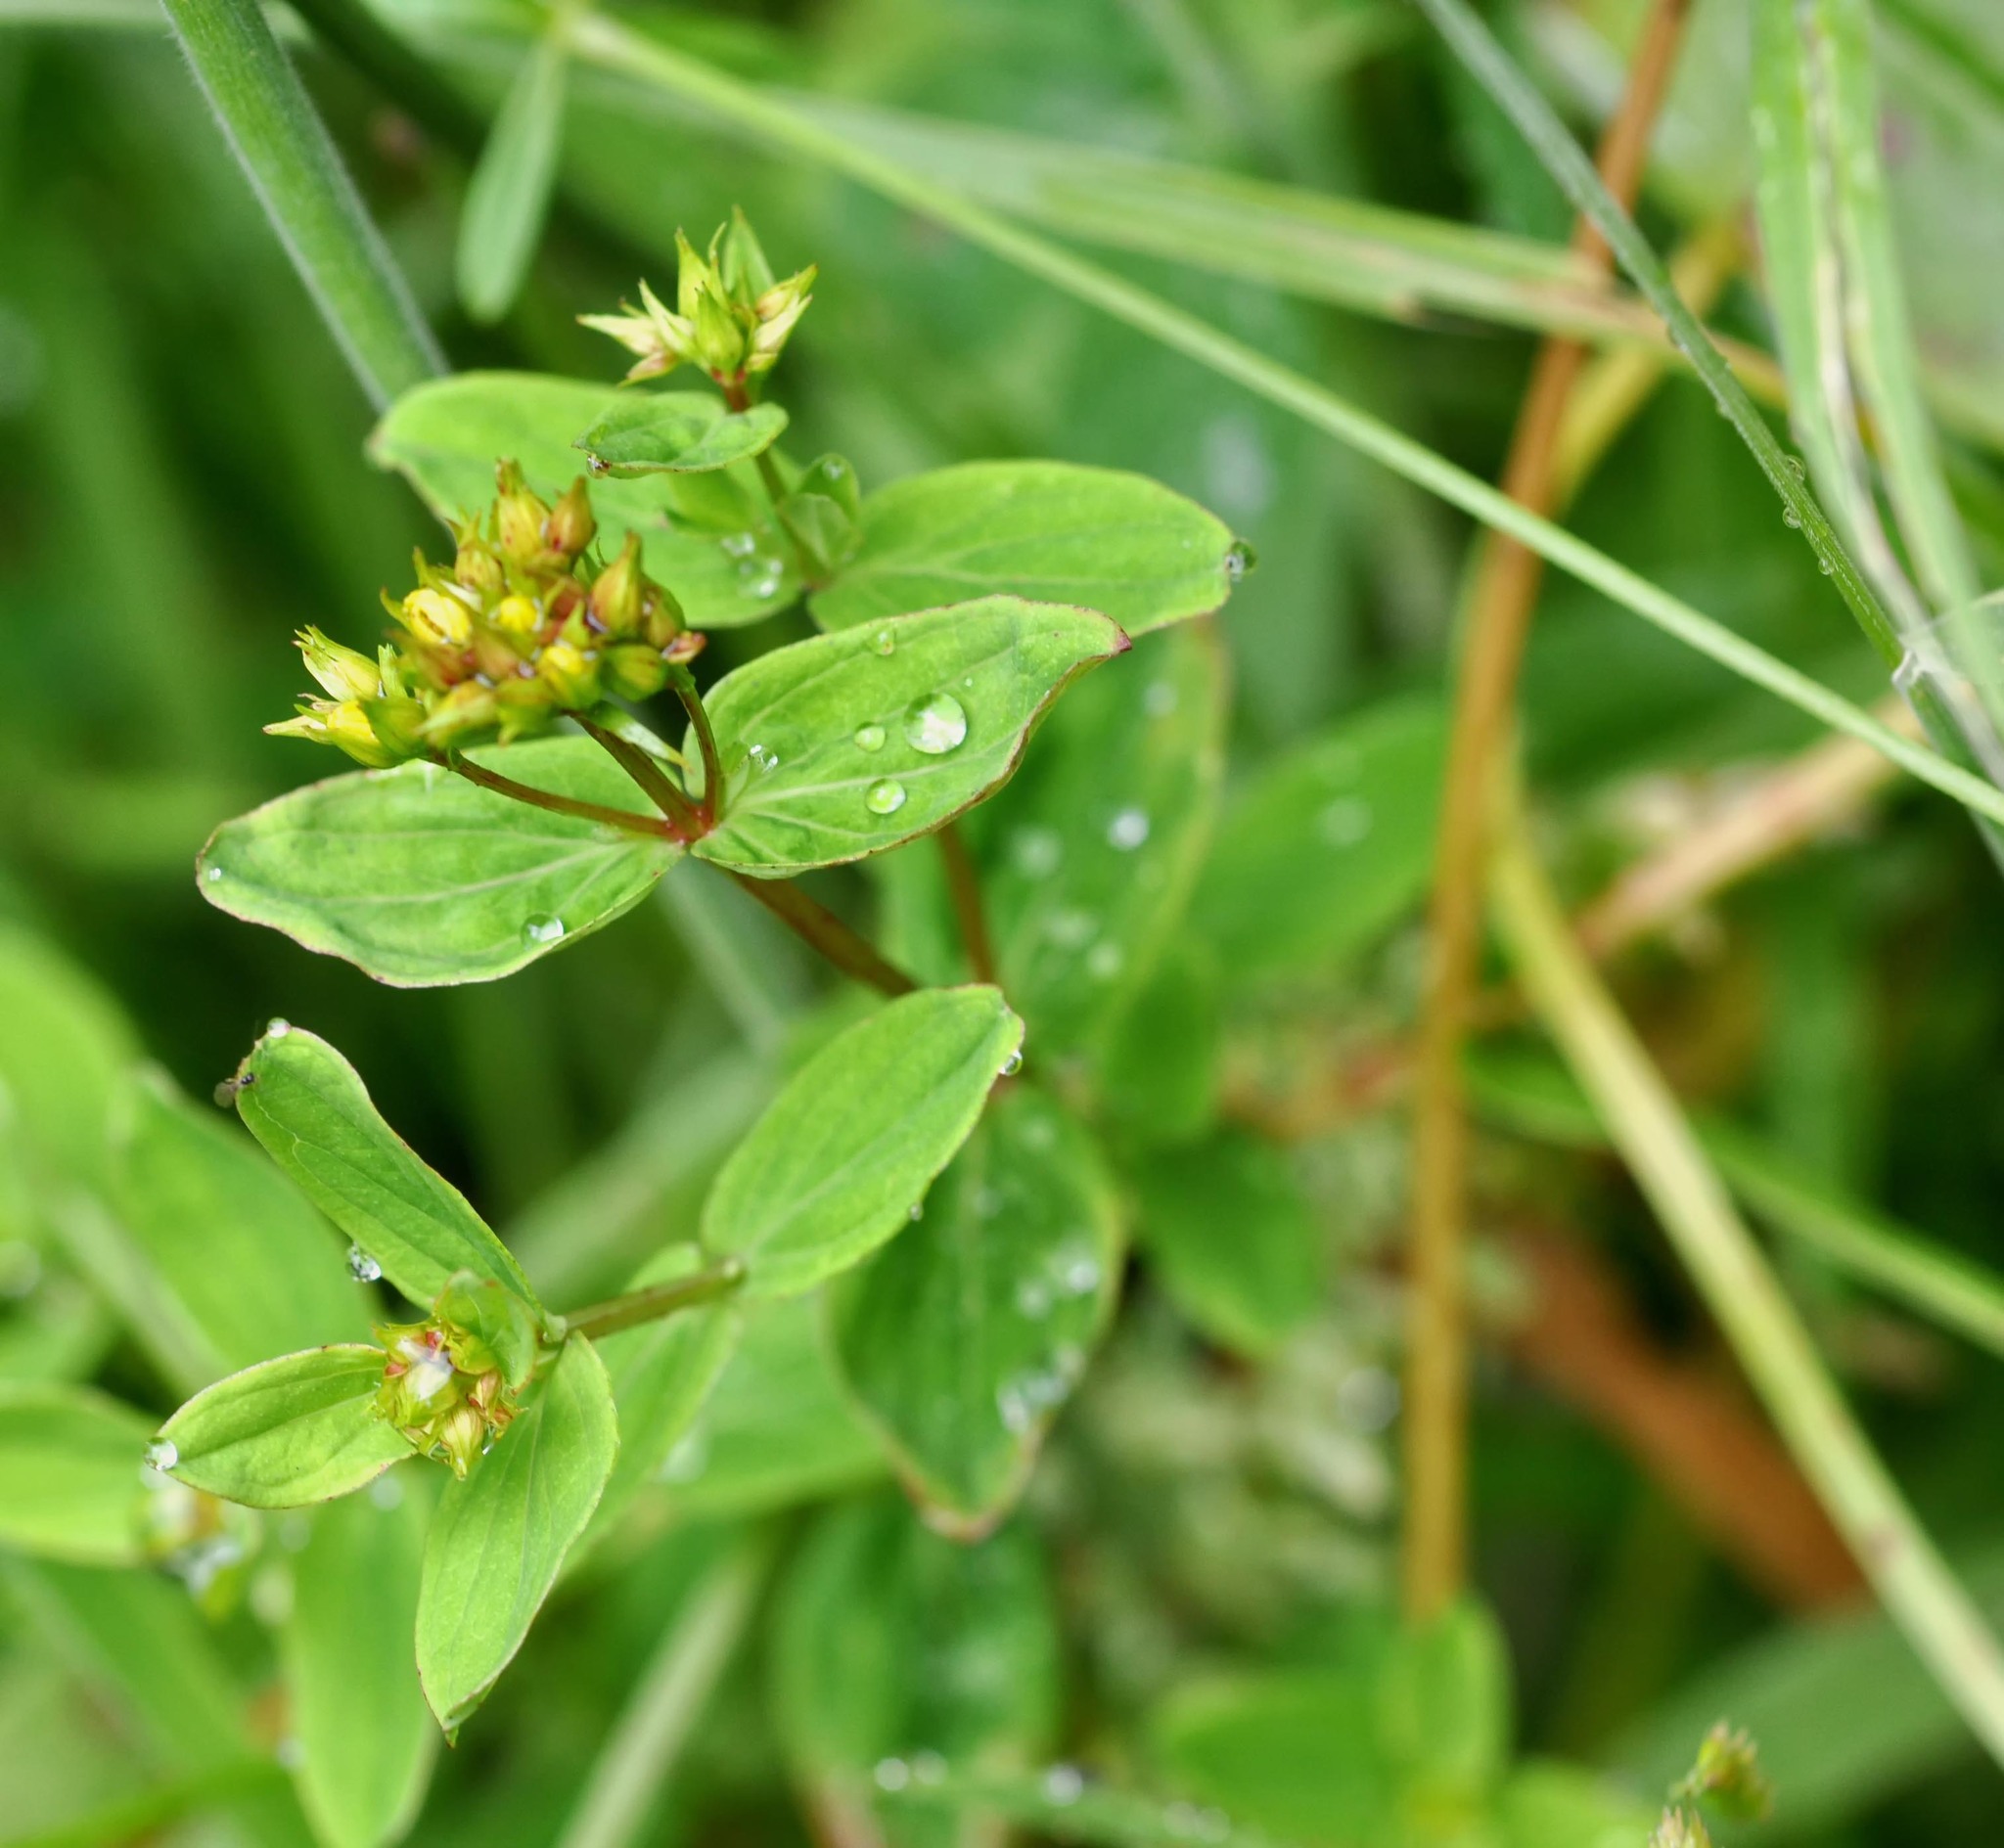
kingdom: Plantae
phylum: Tracheophyta
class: Magnoliopsida
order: Malpighiales
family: Hypericaceae
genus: Hypericum
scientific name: Hypericum tetrapterum
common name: Square-stalked st. john's-wort
